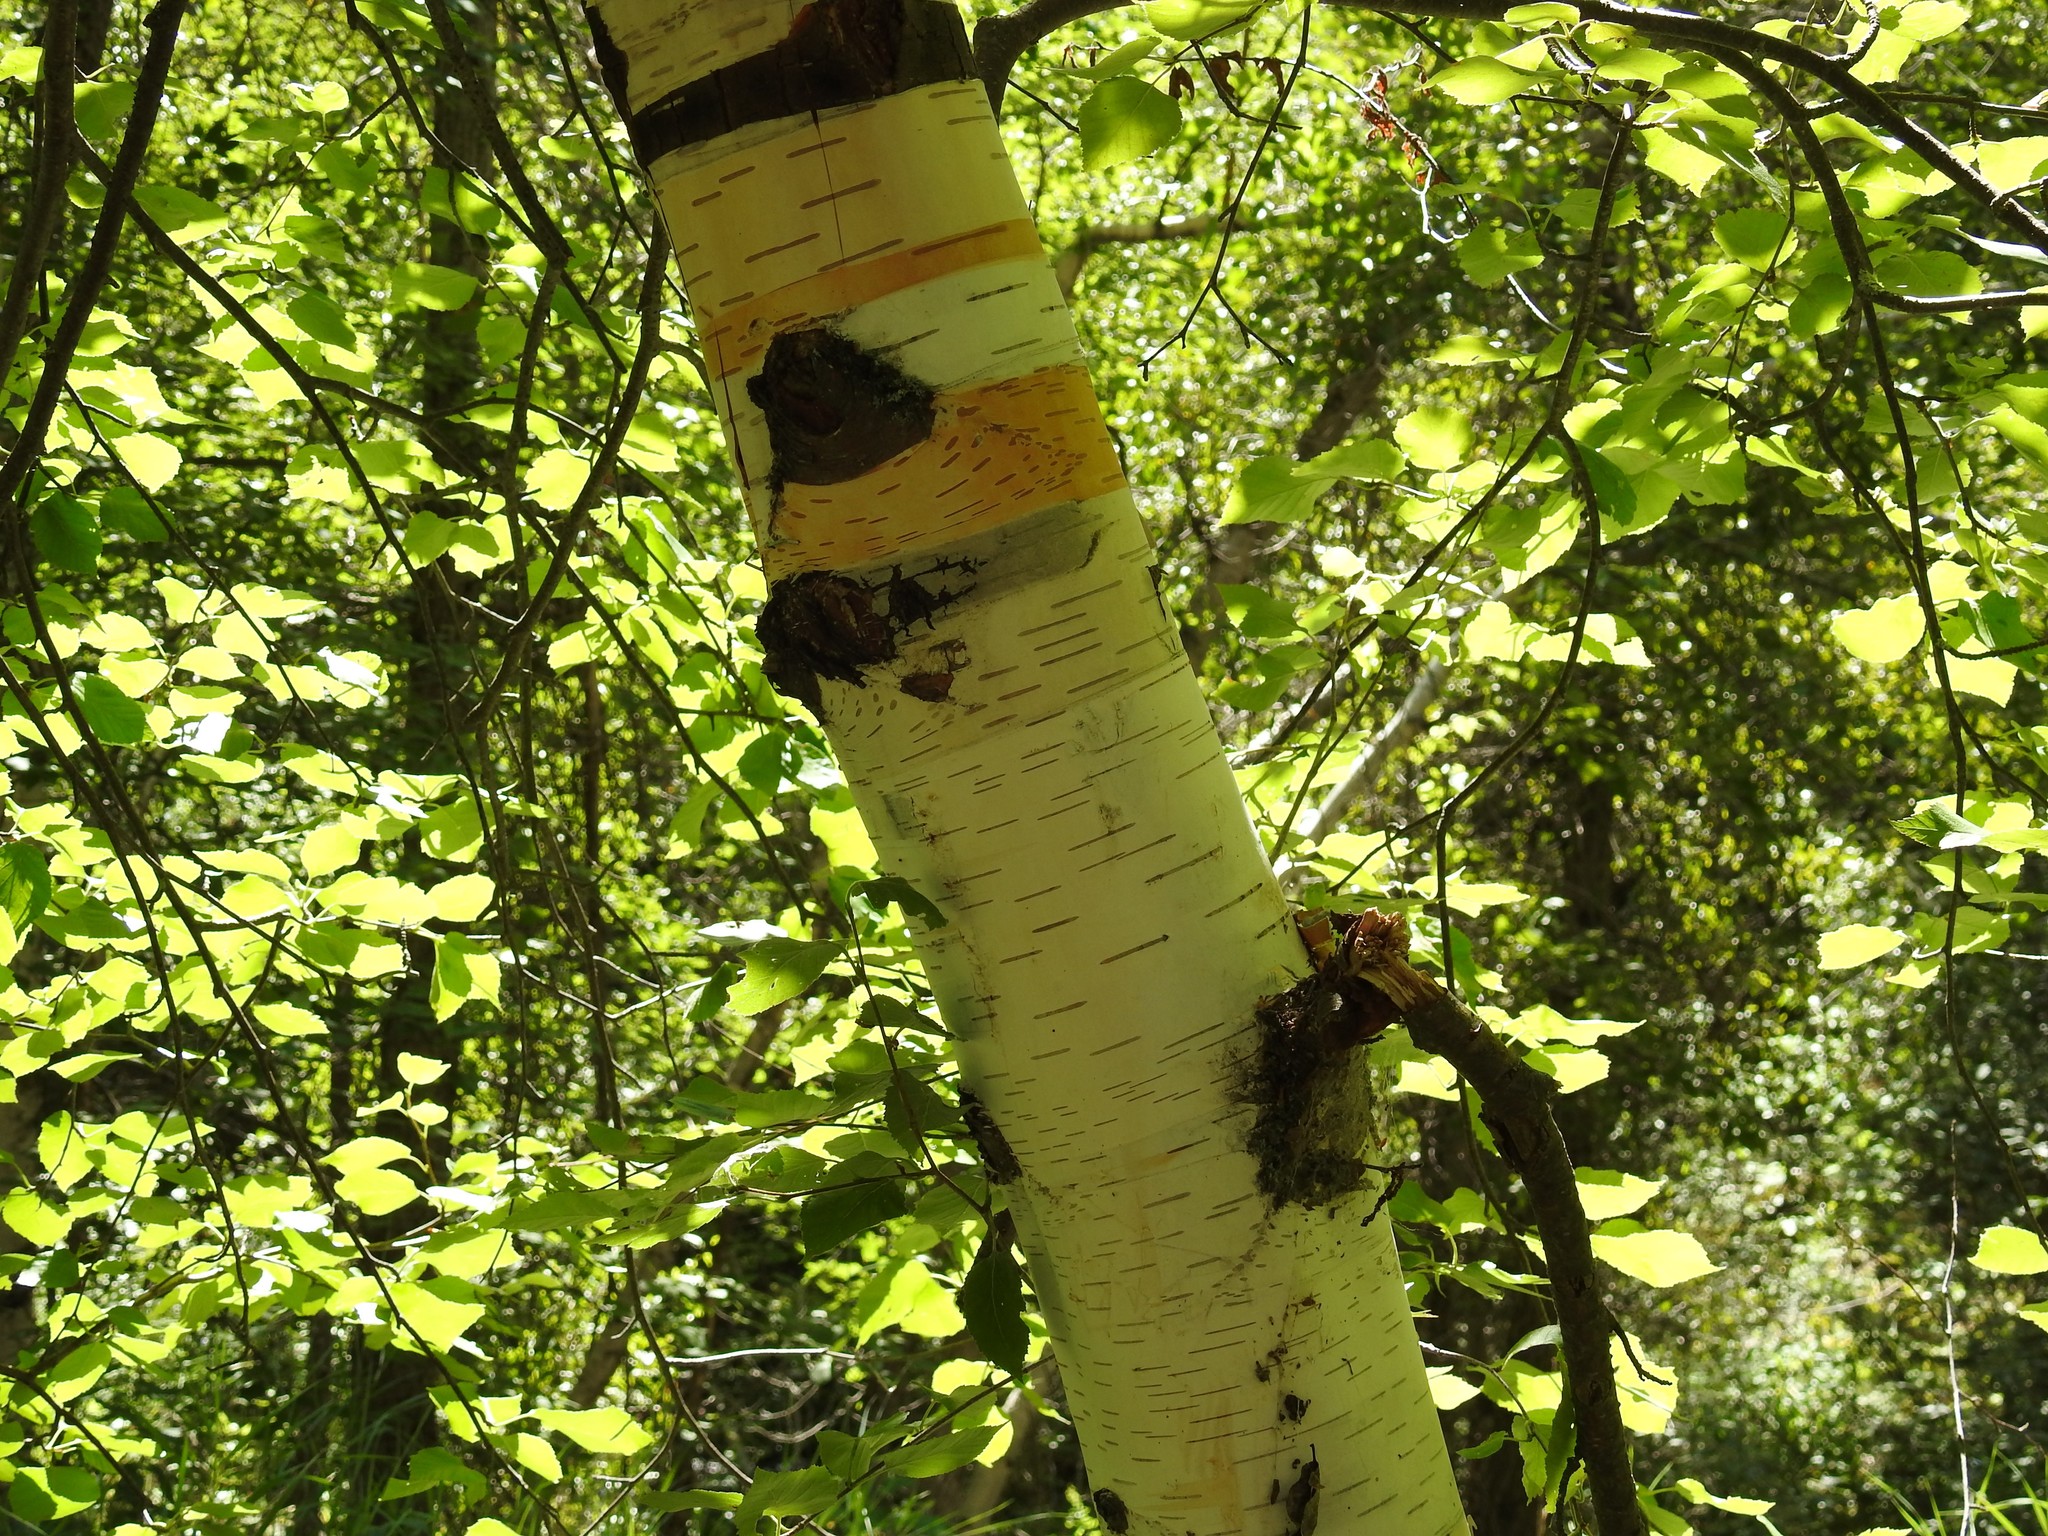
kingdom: Plantae
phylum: Tracheophyta
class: Magnoliopsida
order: Fagales
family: Betulaceae
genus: Betula
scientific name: Betula papyrifera
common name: Paper birch
